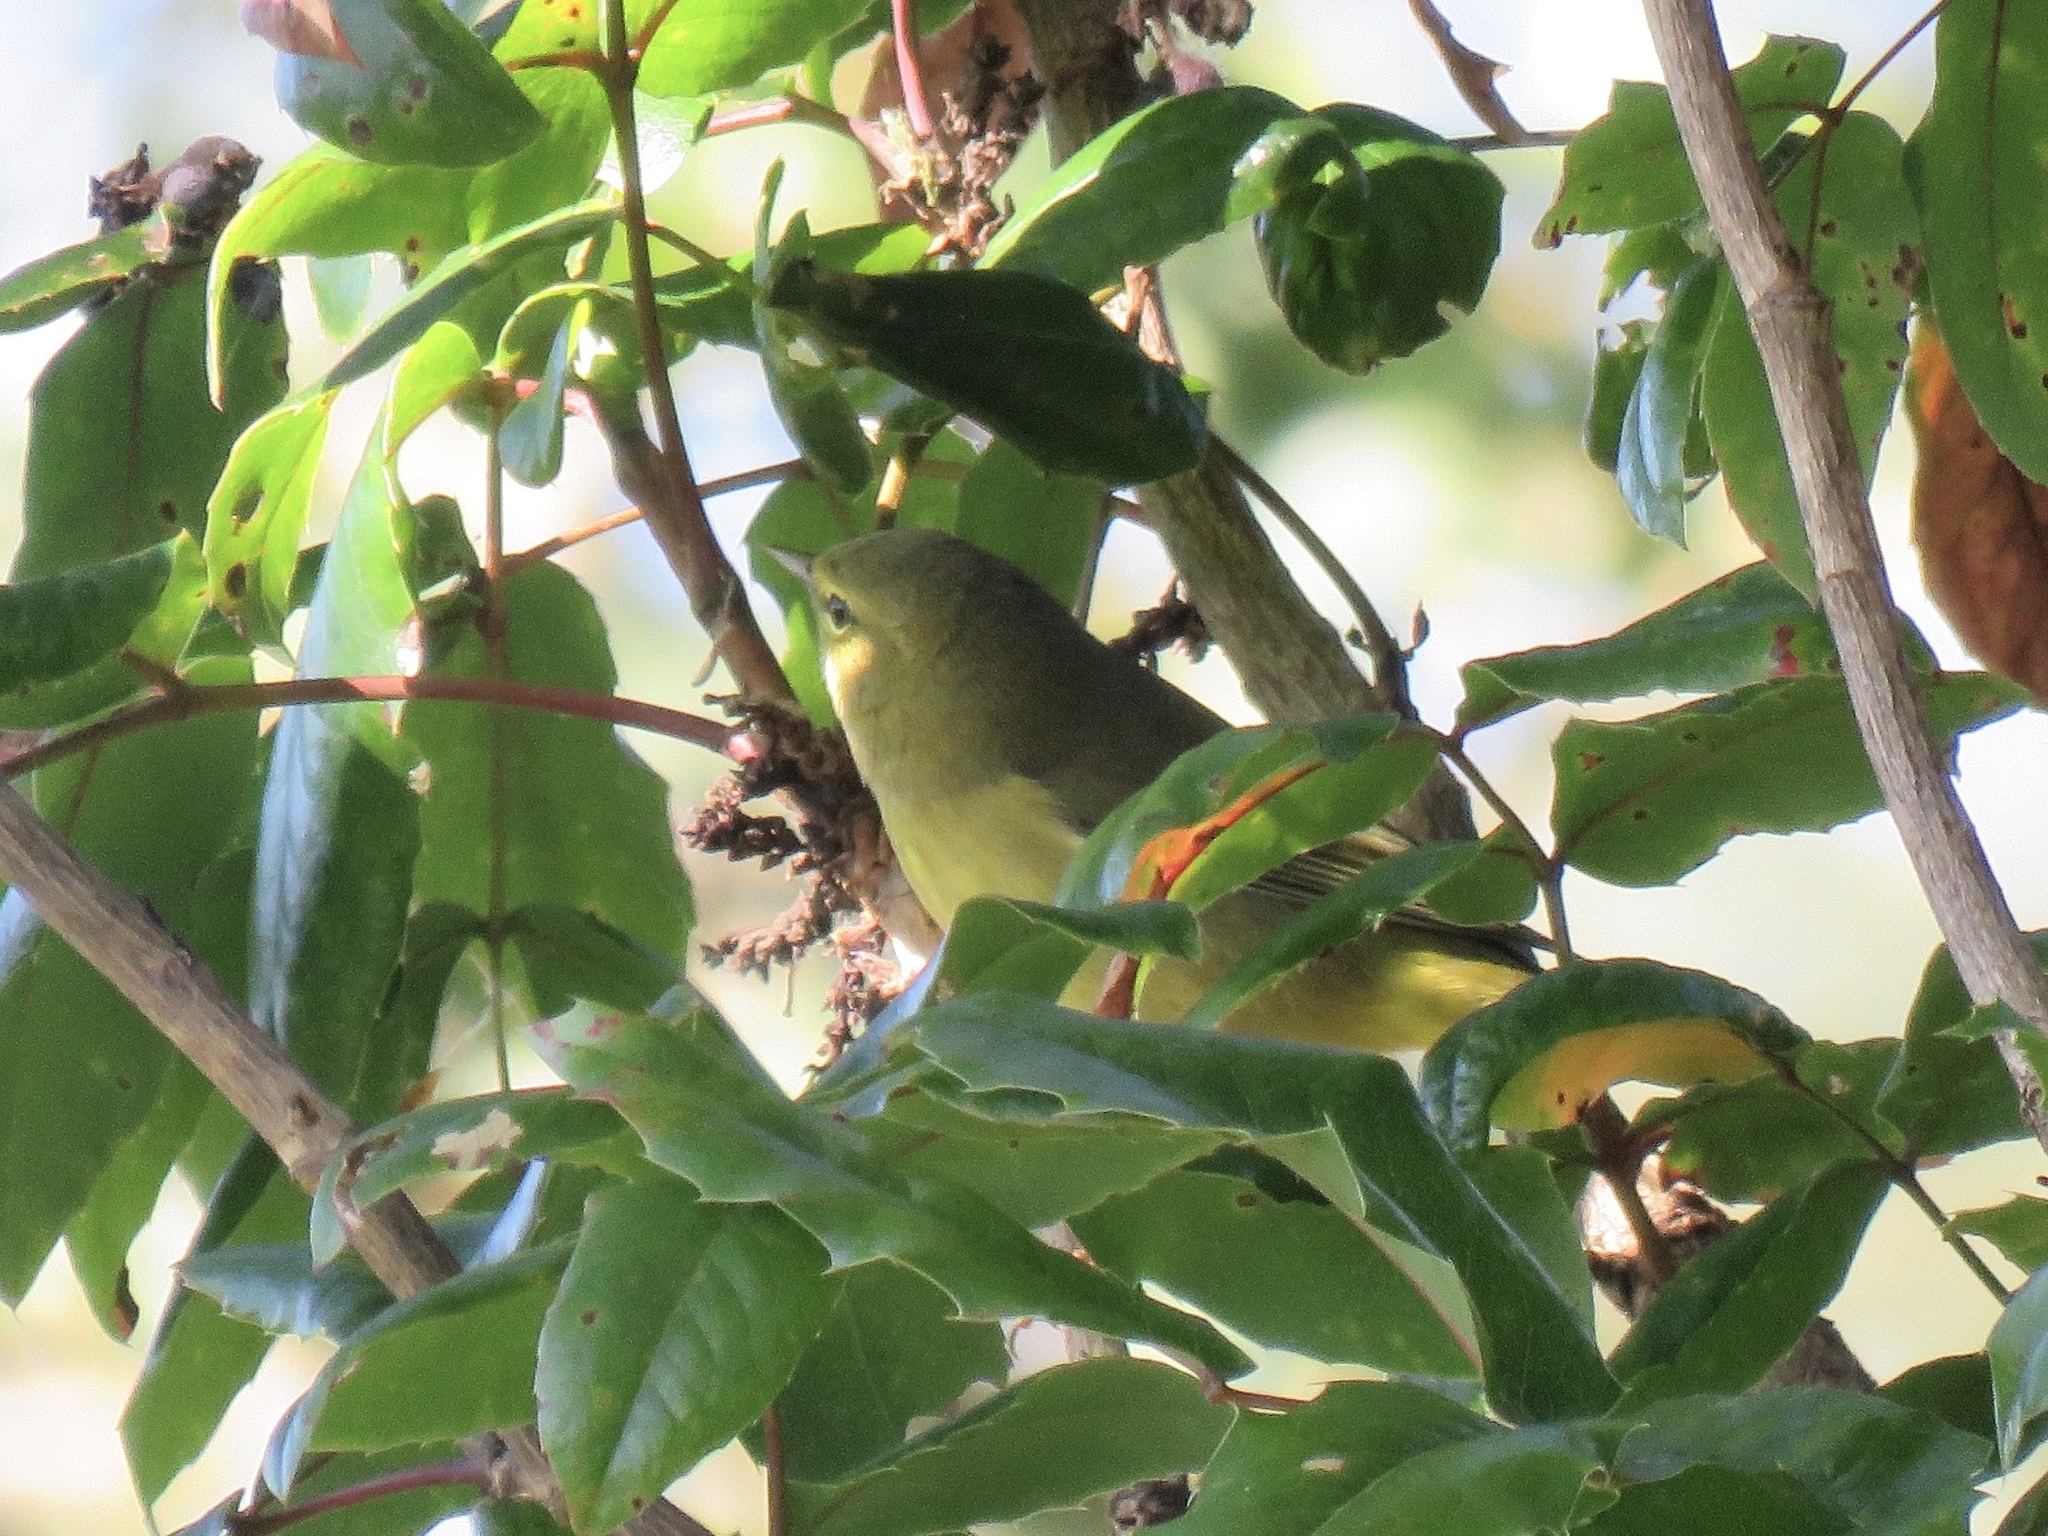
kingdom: Animalia
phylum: Chordata
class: Aves
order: Passeriformes
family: Parulidae
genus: Leiothlypis
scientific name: Leiothlypis celata
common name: Orange-crowned warbler
